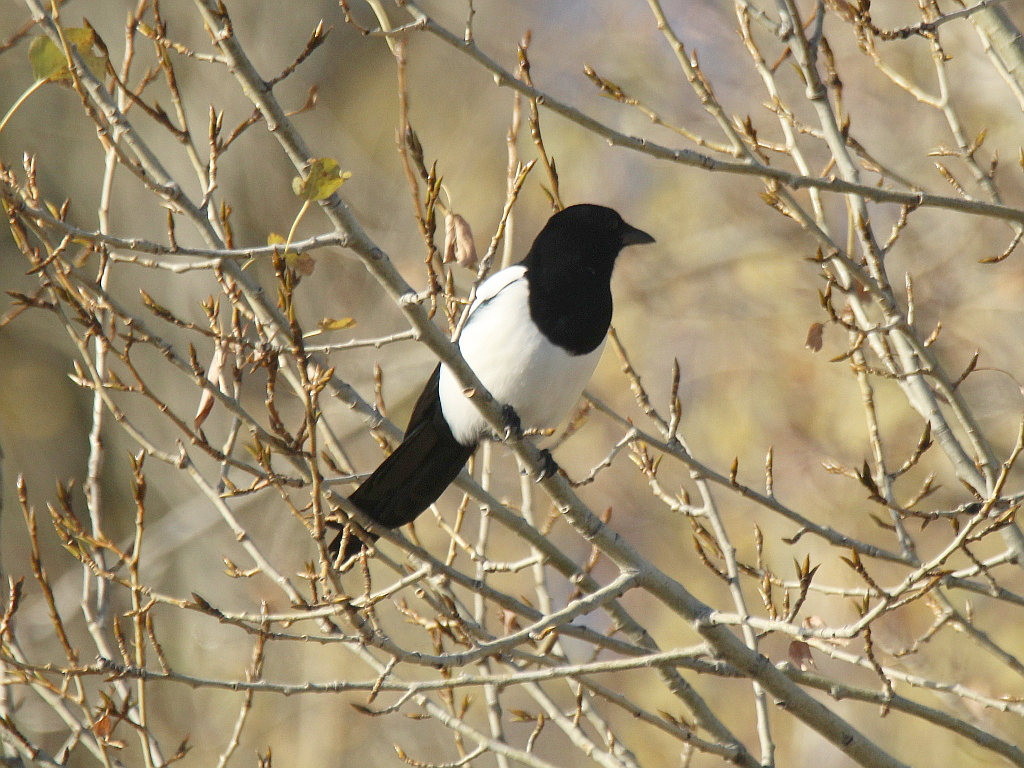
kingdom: Animalia
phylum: Chordata
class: Aves
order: Passeriformes
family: Corvidae
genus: Pica
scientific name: Pica pica
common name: Eurasian magpie
